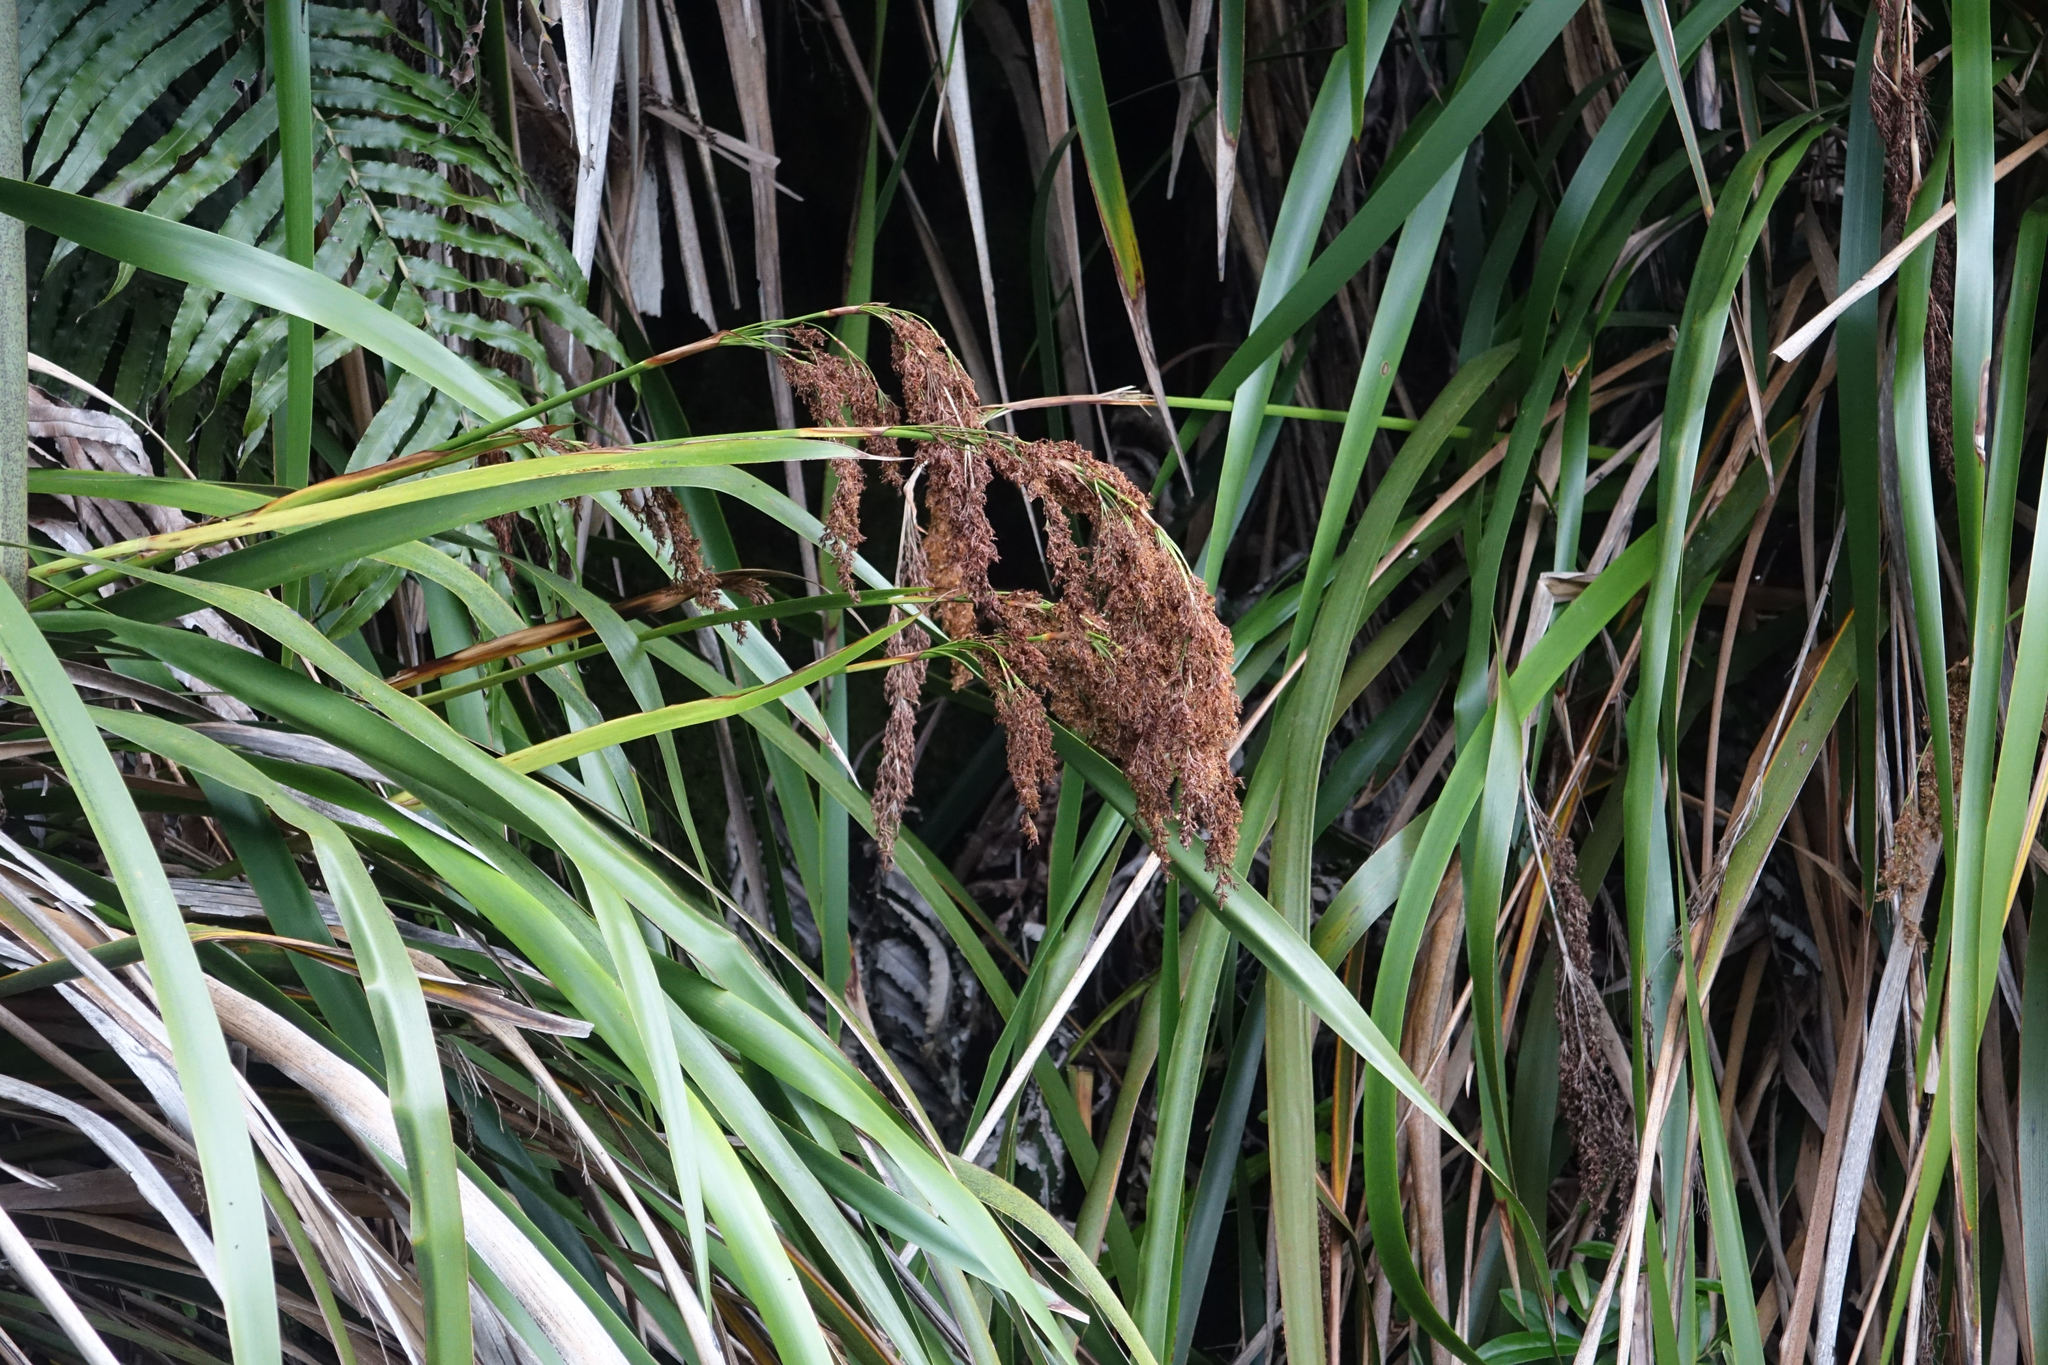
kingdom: Plantae
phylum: Tracheophyta
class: Liliopsida
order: Poales
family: Cyperaceae
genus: Machaerina
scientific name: Machaerina sinclairii
